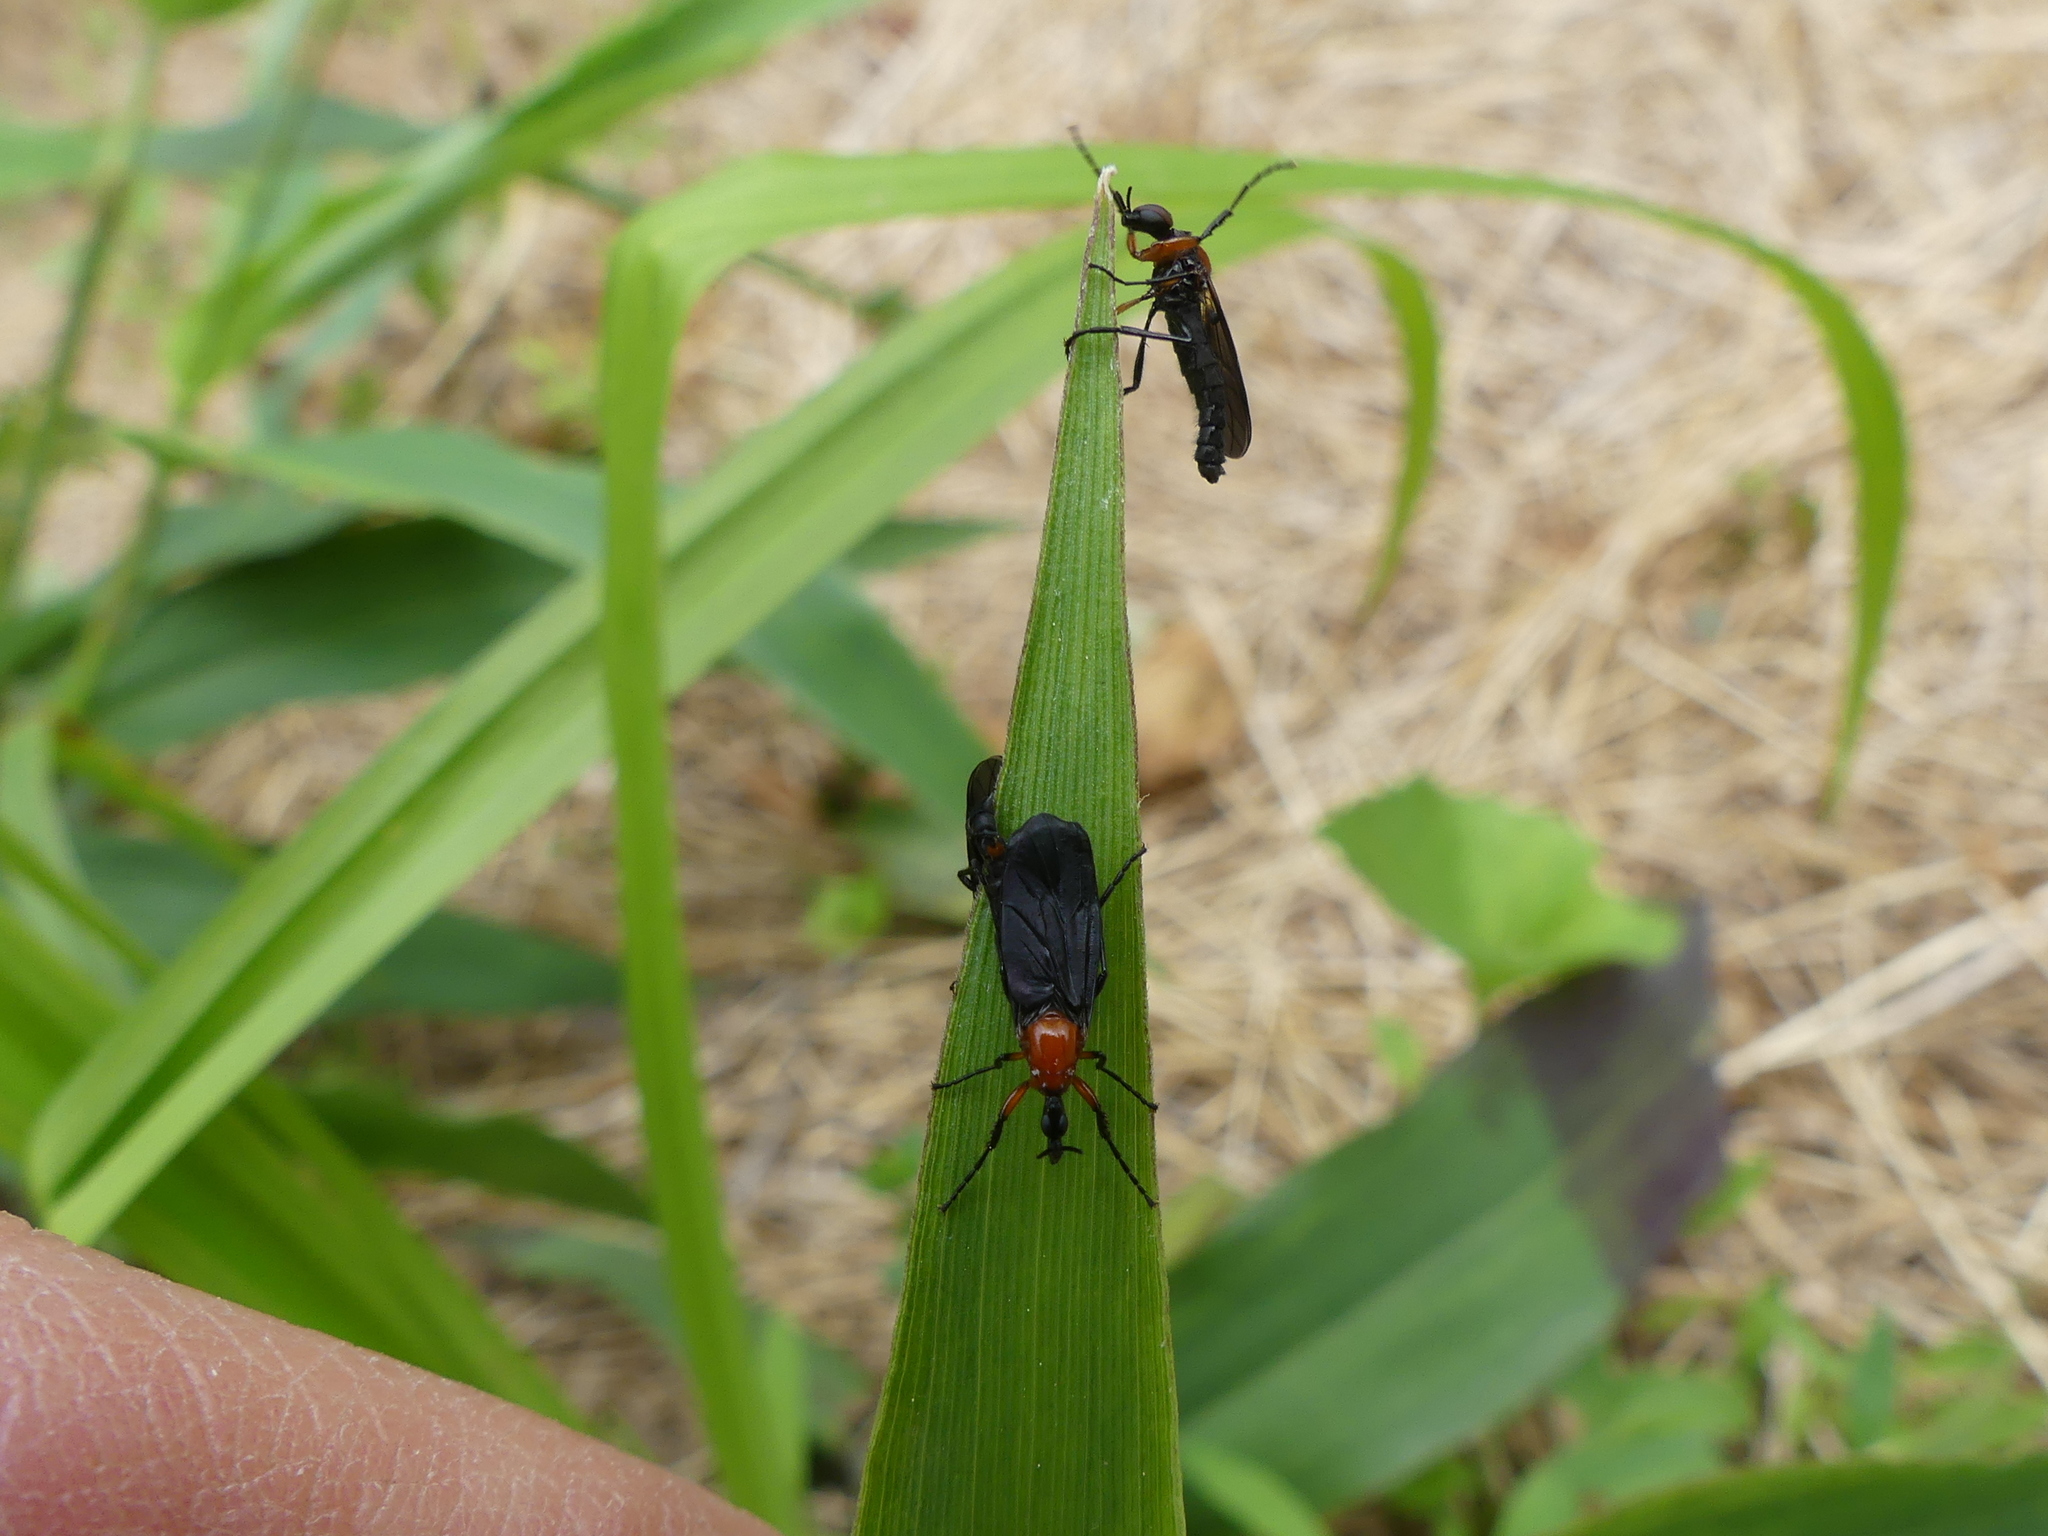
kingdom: Animalia
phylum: Arthropoda
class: Insecta
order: Diptera
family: Bibionidae
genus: Dilophus
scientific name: Dilophus spinipes
